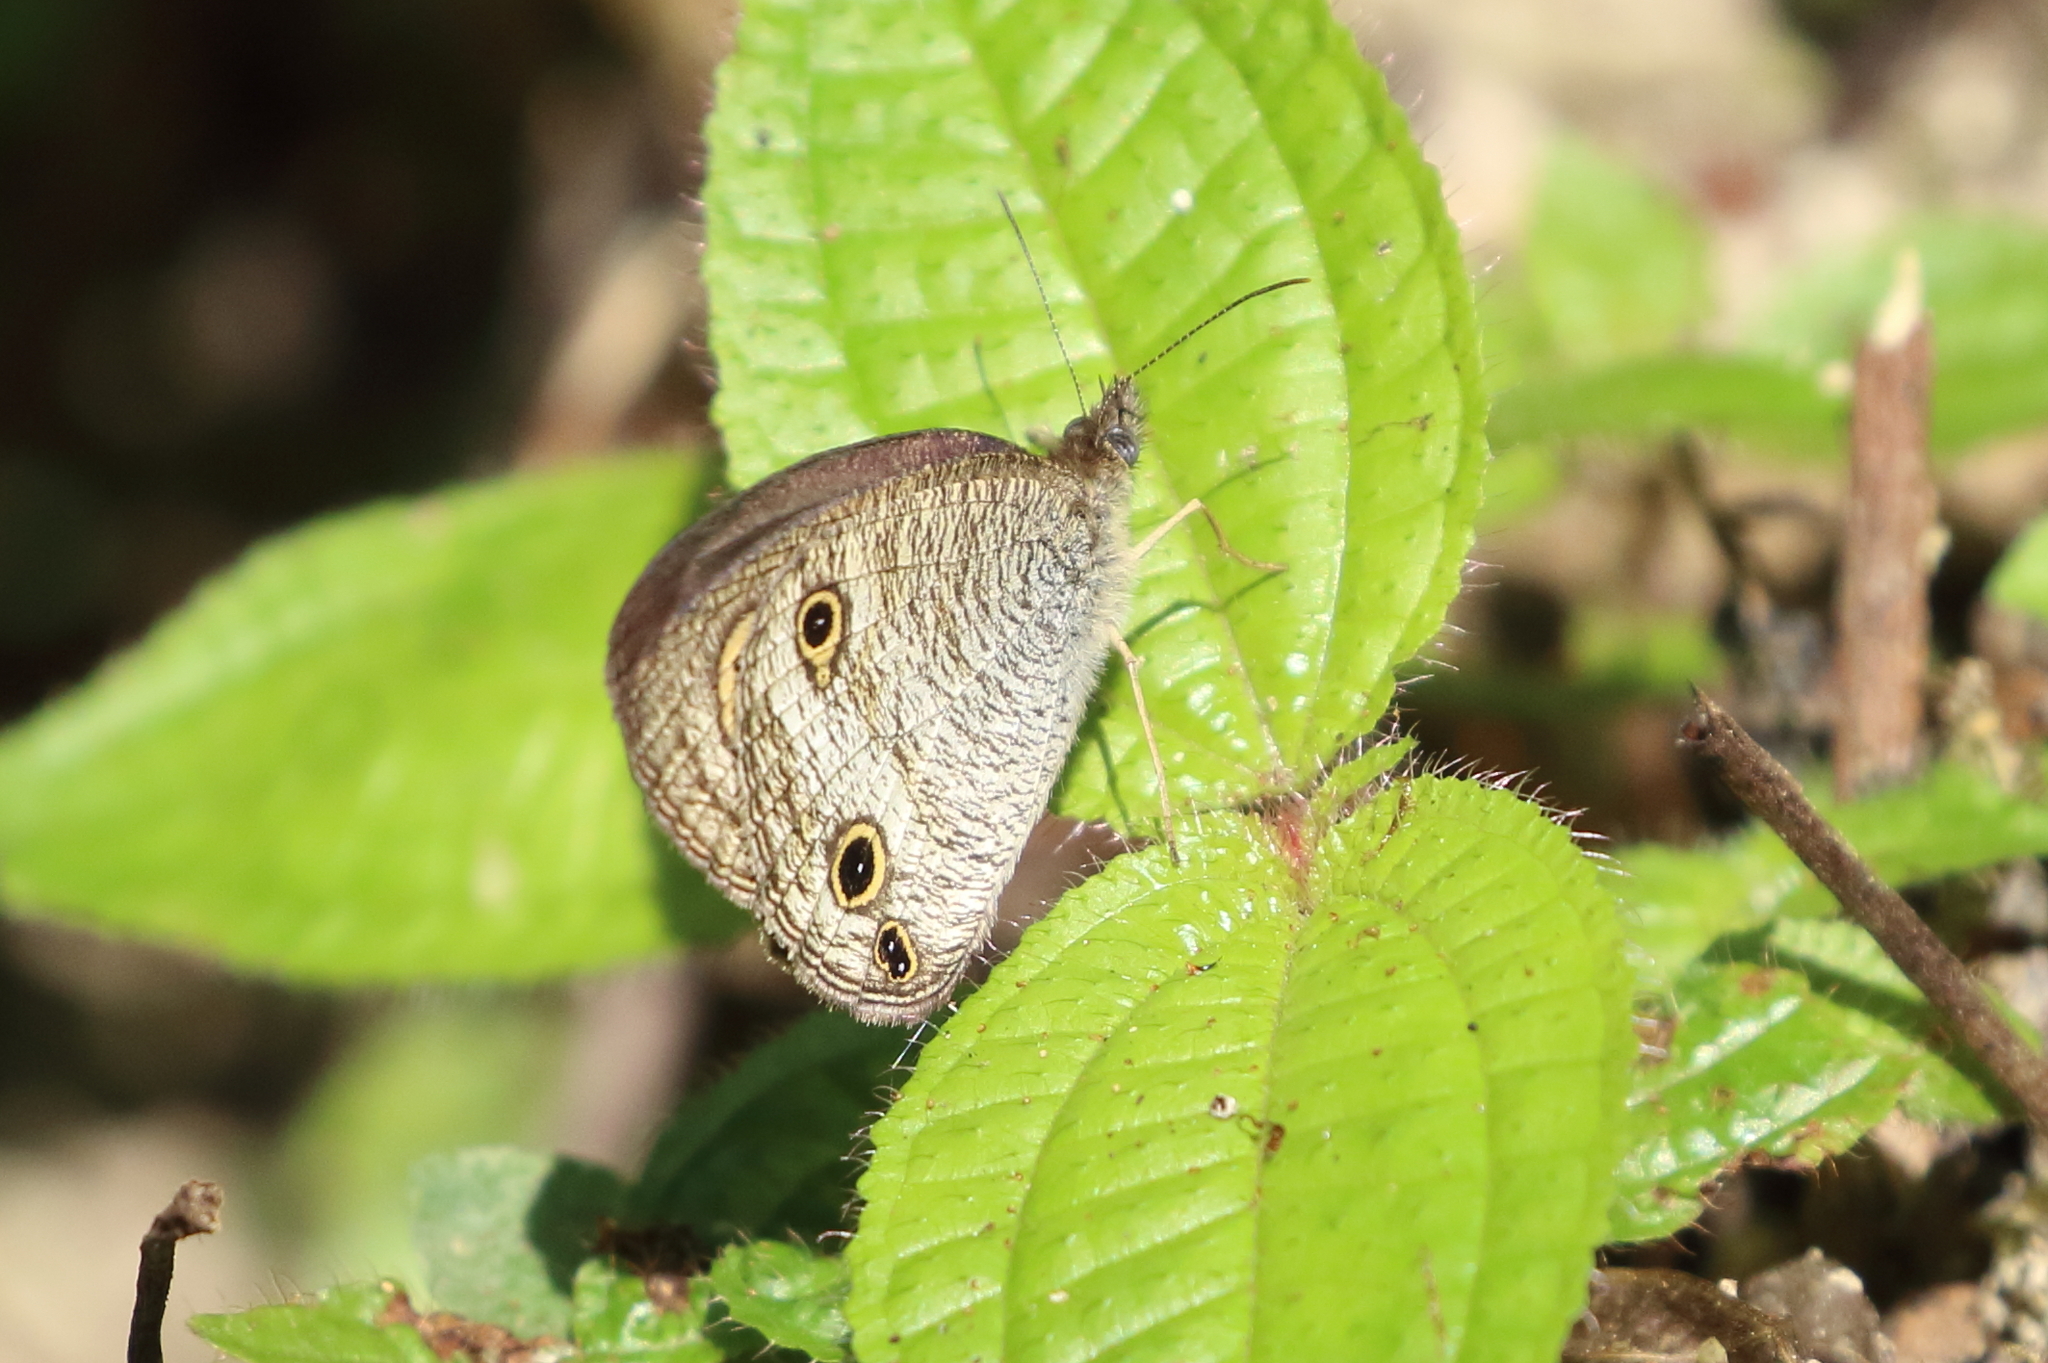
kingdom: Animalia
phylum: Arthropoda
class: Insecta
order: Lepidoptera
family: Nymphalidae
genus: Ypthima
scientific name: Ypthima pandocus
